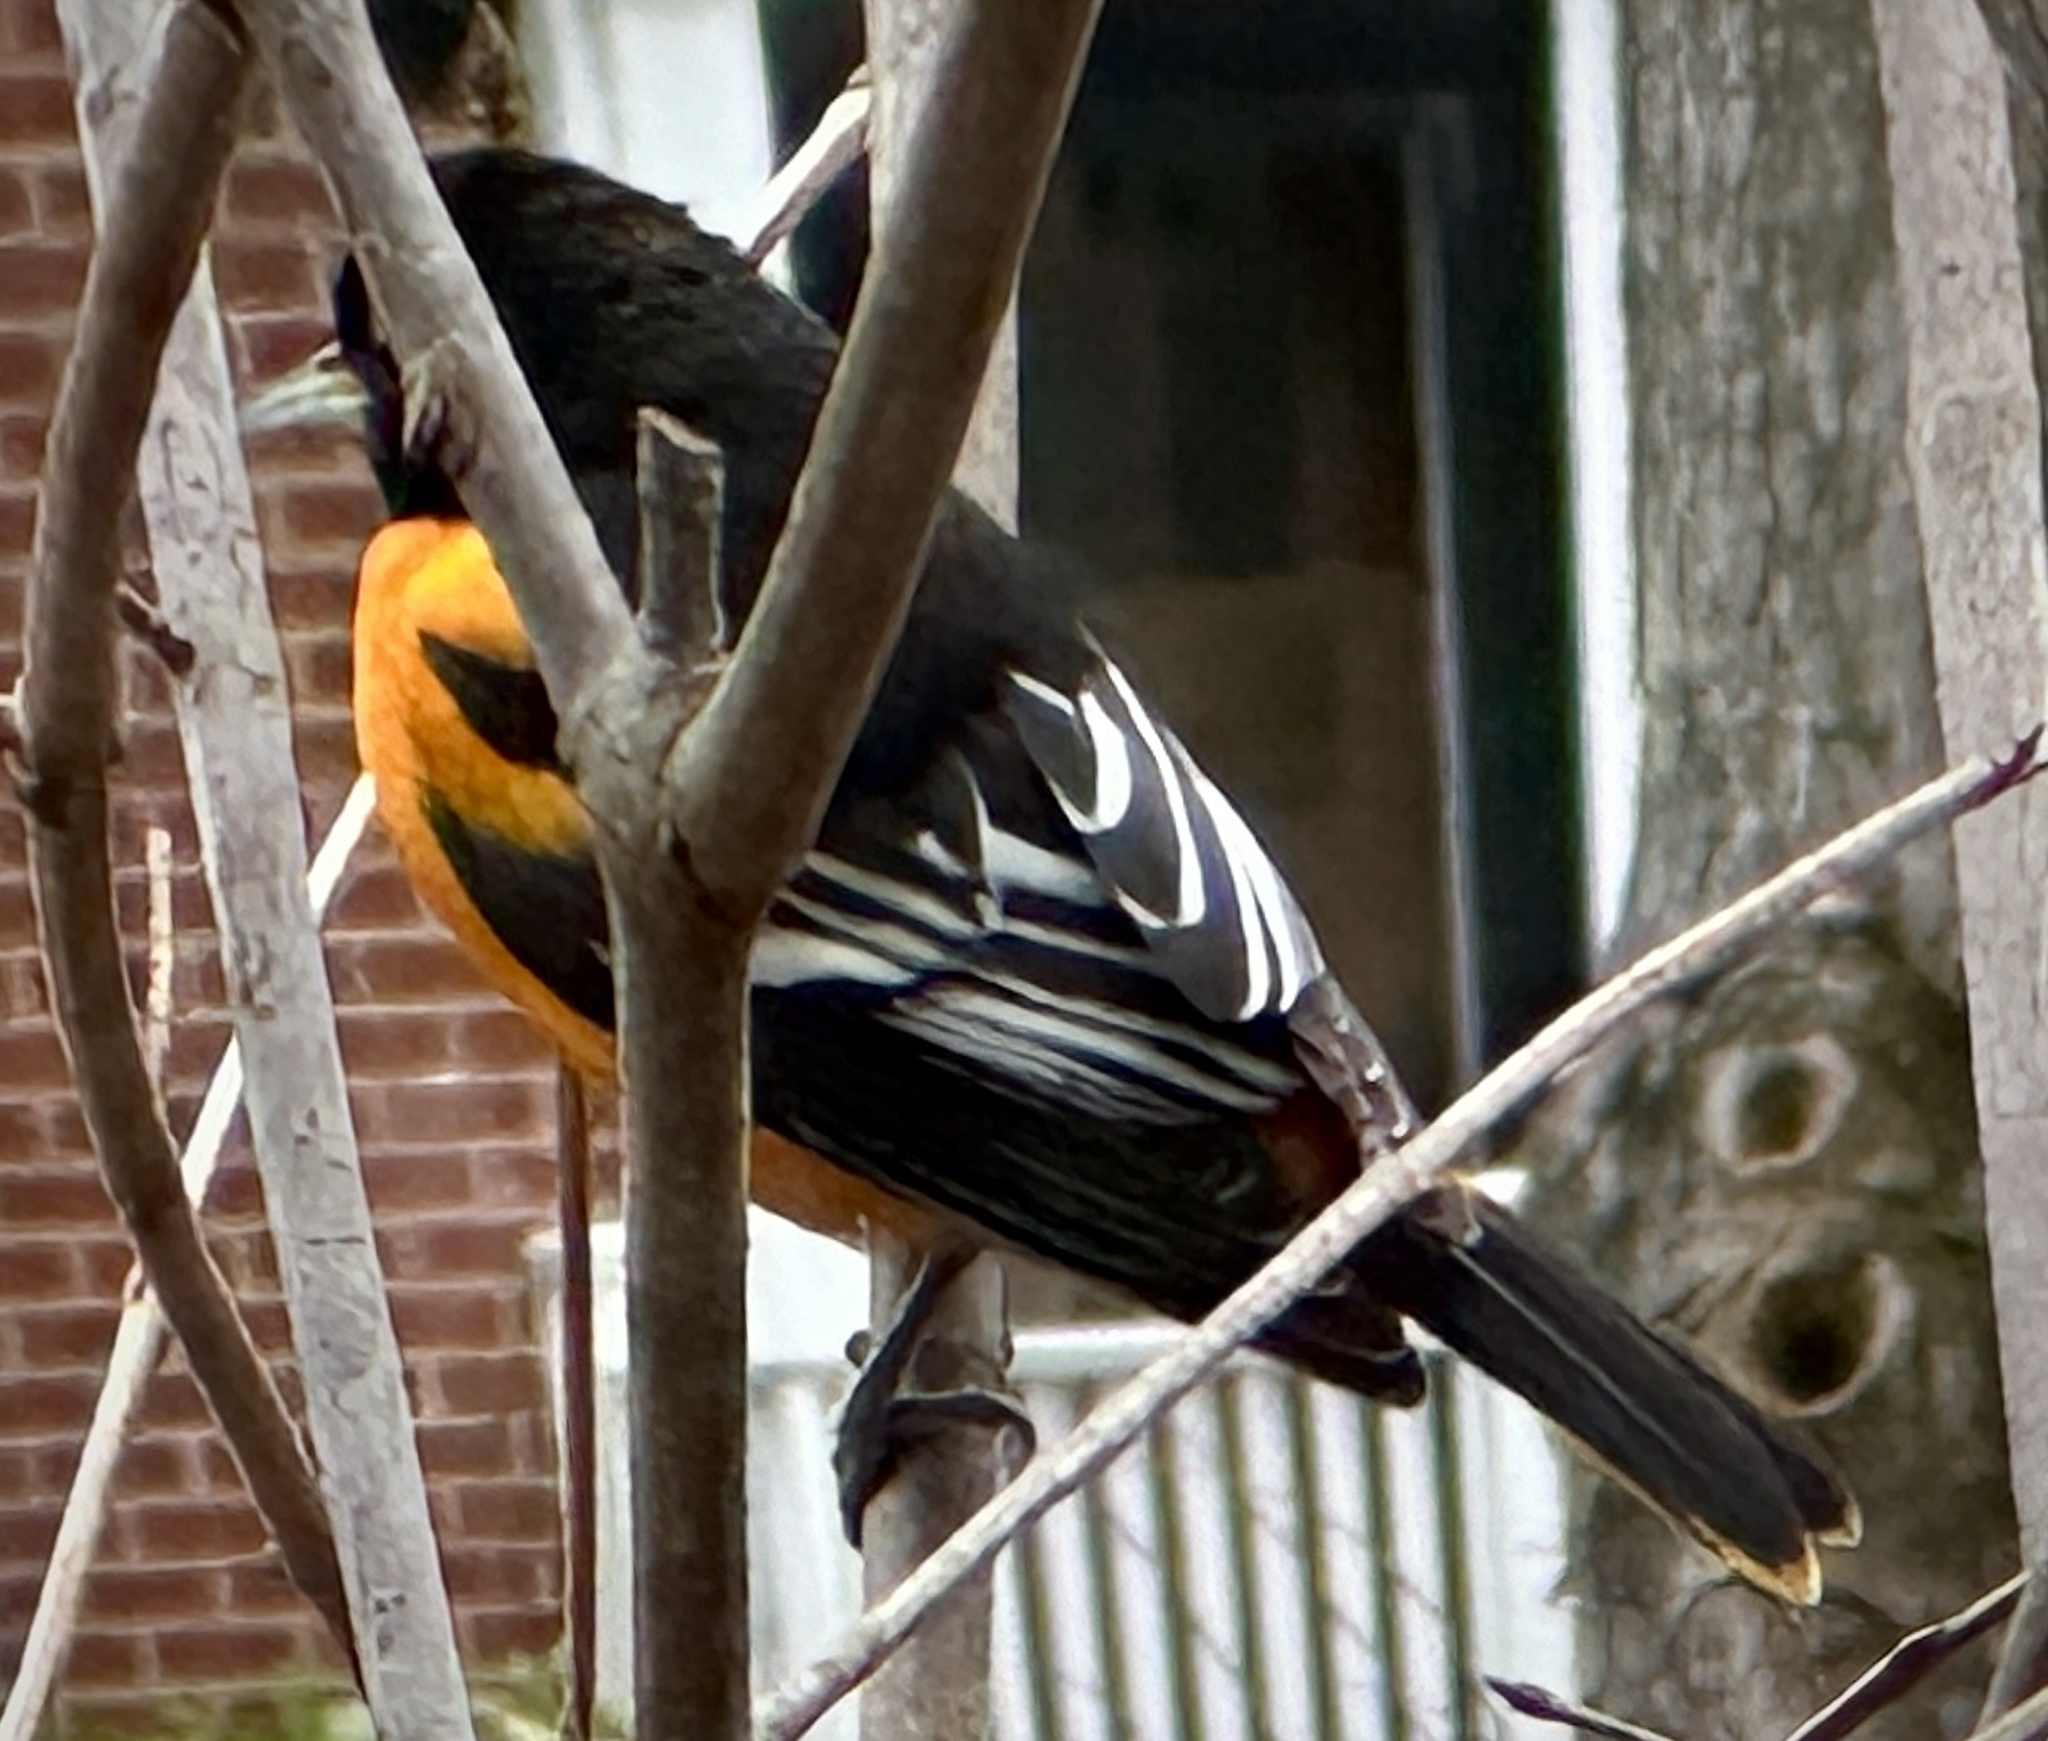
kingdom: Animalia
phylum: Chordata
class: Aves
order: Passeriformes
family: Icteridae
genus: Icterus
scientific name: Icterus galbula
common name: Baltimore oriole
